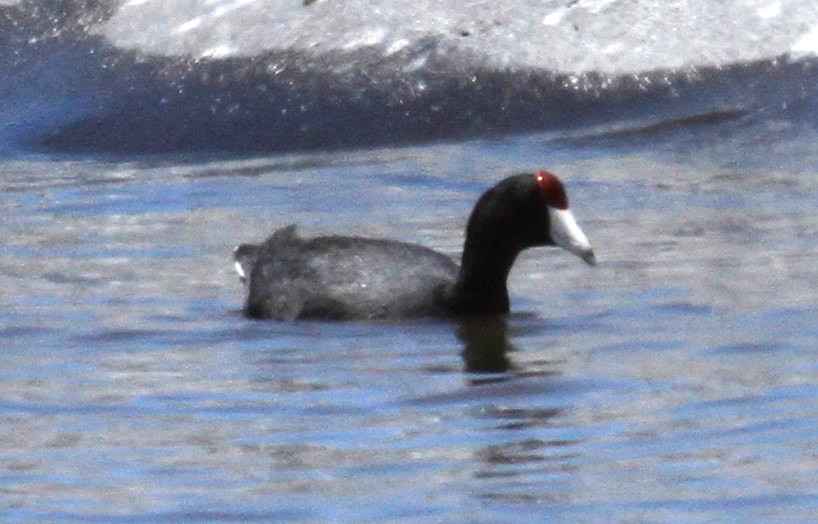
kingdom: Animalia
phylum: Chordata
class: Aves
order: Gruiformes
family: Rallidae
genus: Fulica
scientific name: Fulica alai
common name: Hawaiian coot
